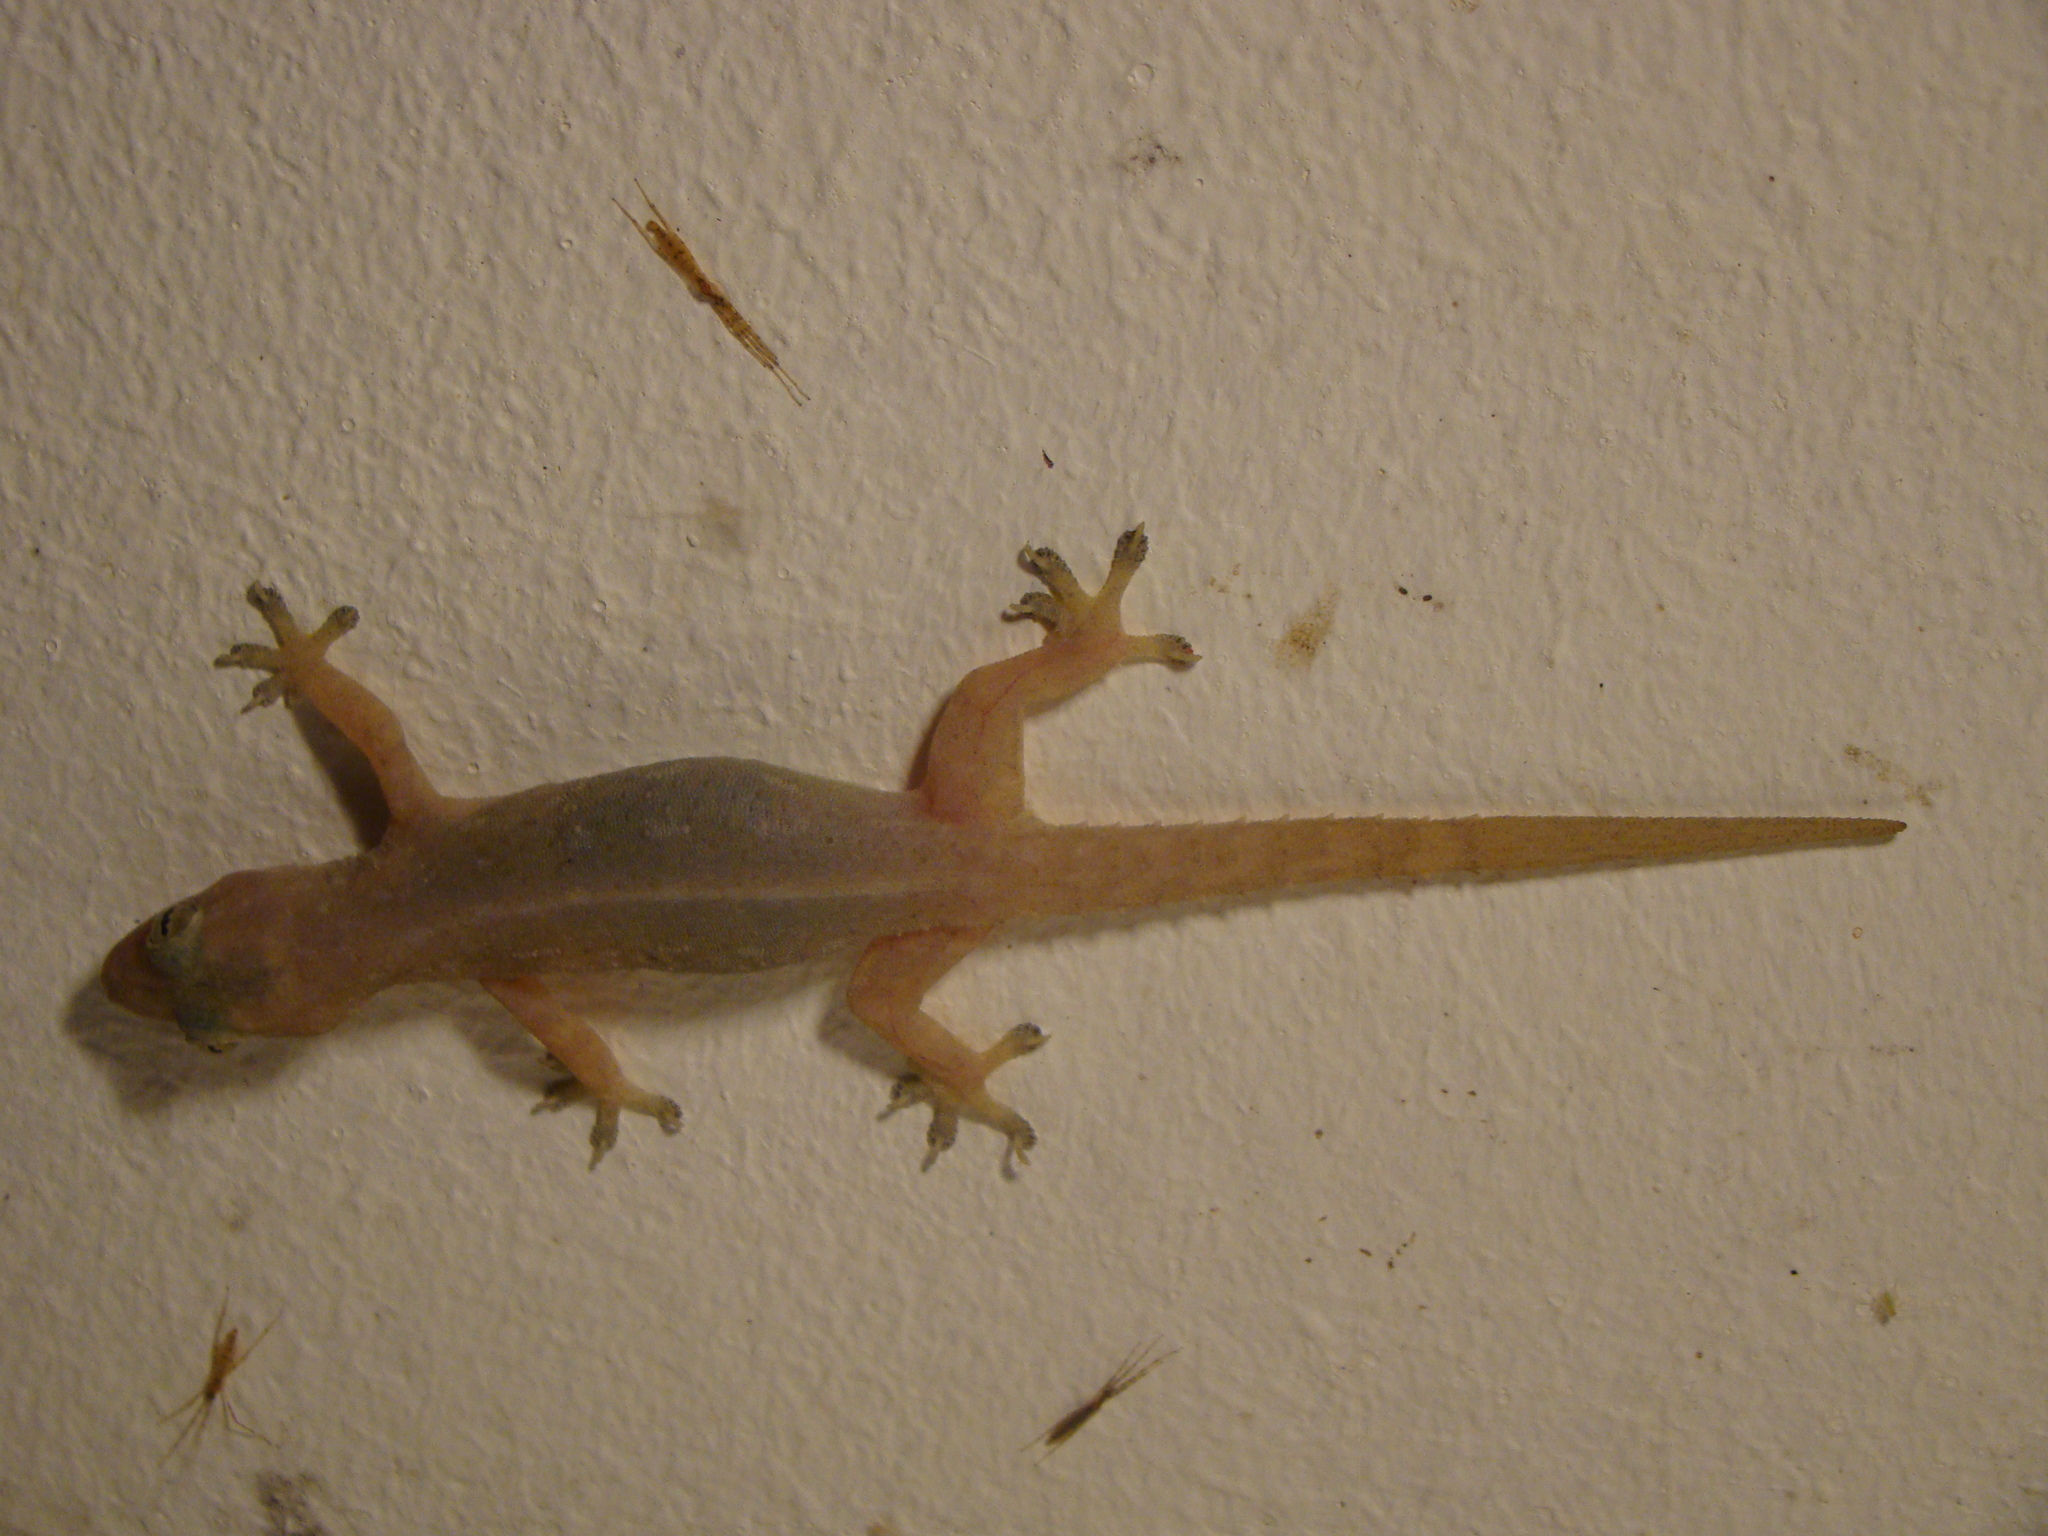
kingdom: Animalia
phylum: Chordata
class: Squamata
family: Gekkonidae
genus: Hemidactylus
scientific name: Hemidactylus frenatus
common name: Common house gecko
